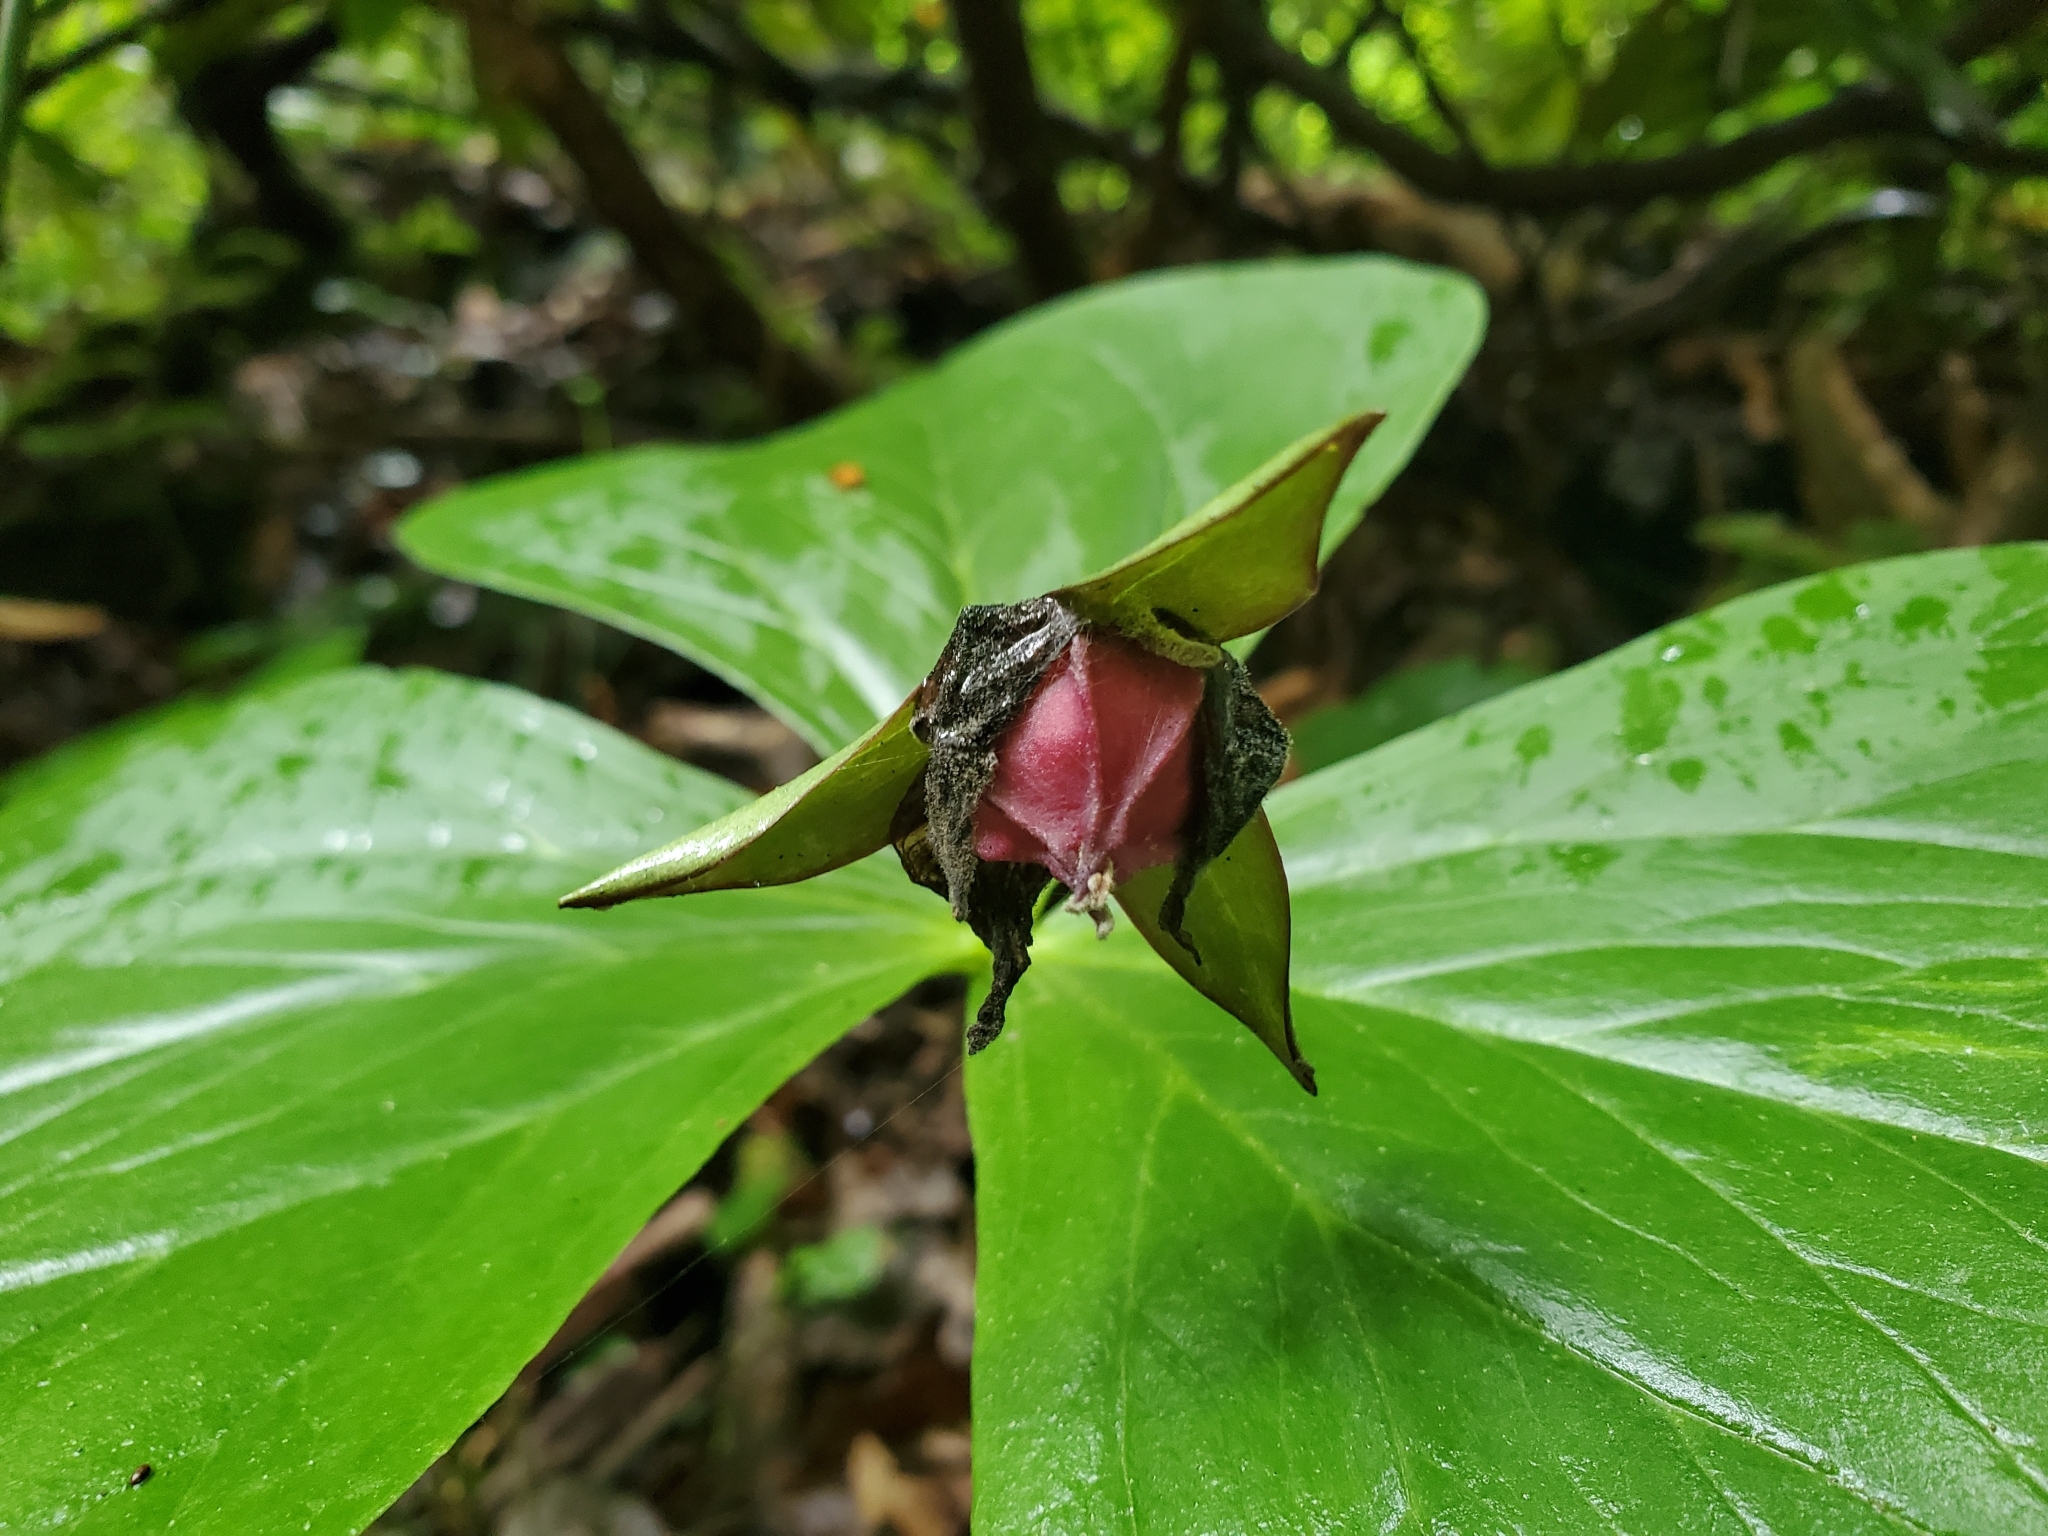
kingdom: Plantae
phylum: Tracheophyta
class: Liliopsida
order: Liliales
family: Melanthiaceae
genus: Trillium
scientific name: Trillium sulcatum
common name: Barksdale trillium
